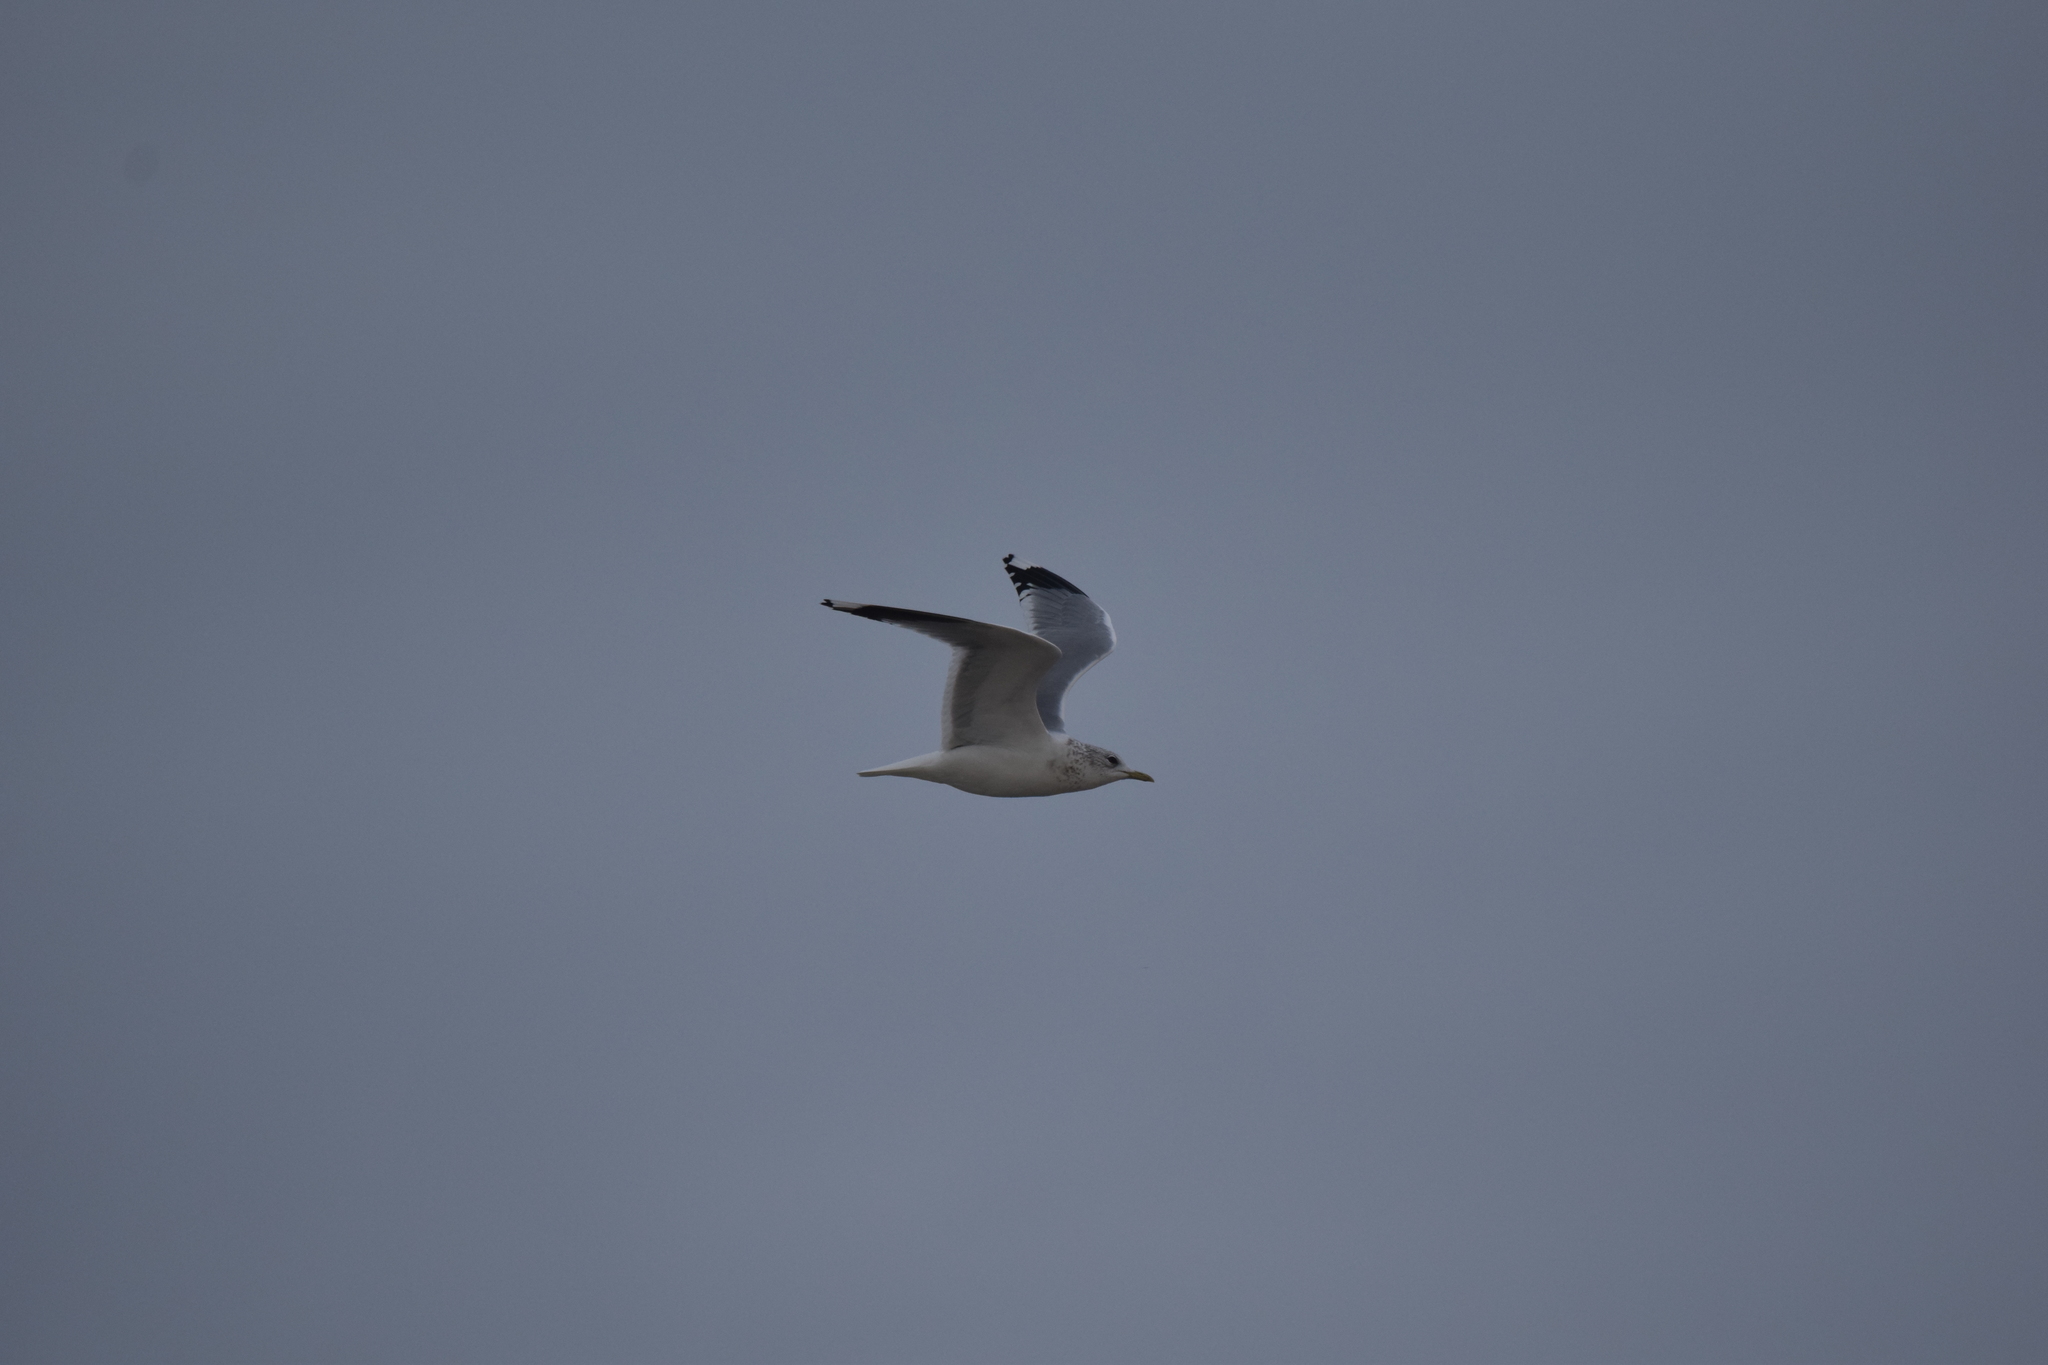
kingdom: Animalia
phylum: Chordata
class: Aves
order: Charadriiformes
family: Laridae
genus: Larus
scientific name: Larus canus
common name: Mew gull
